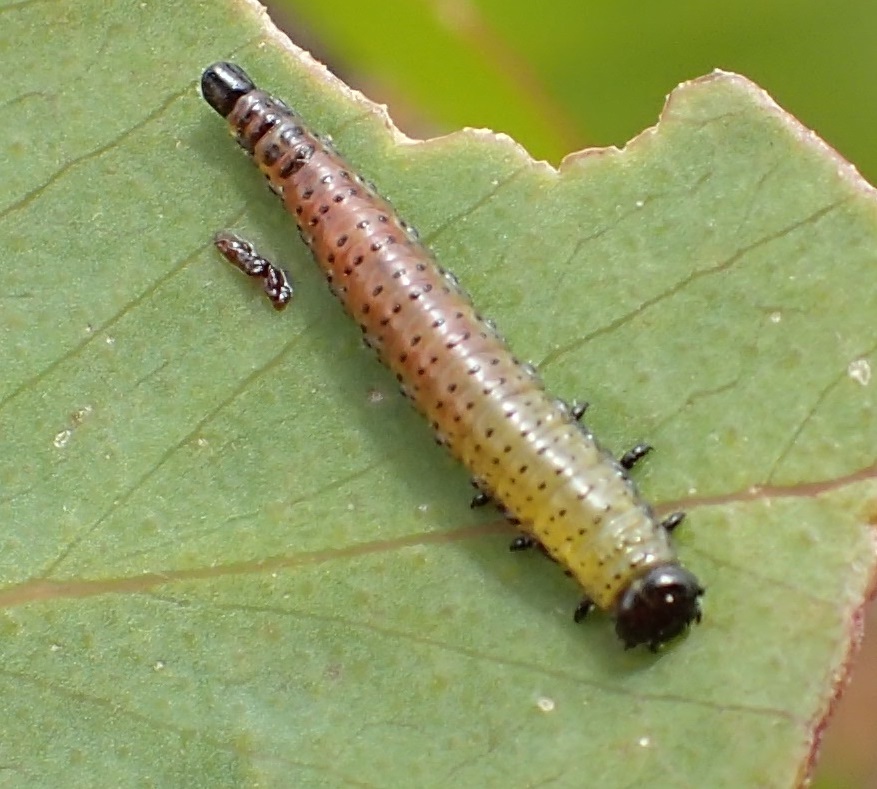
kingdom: Animalia
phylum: Arthropoda
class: Insecta
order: Coleoptera
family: Chrysomelidae
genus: Paropsisterna
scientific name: Paropsisterna
